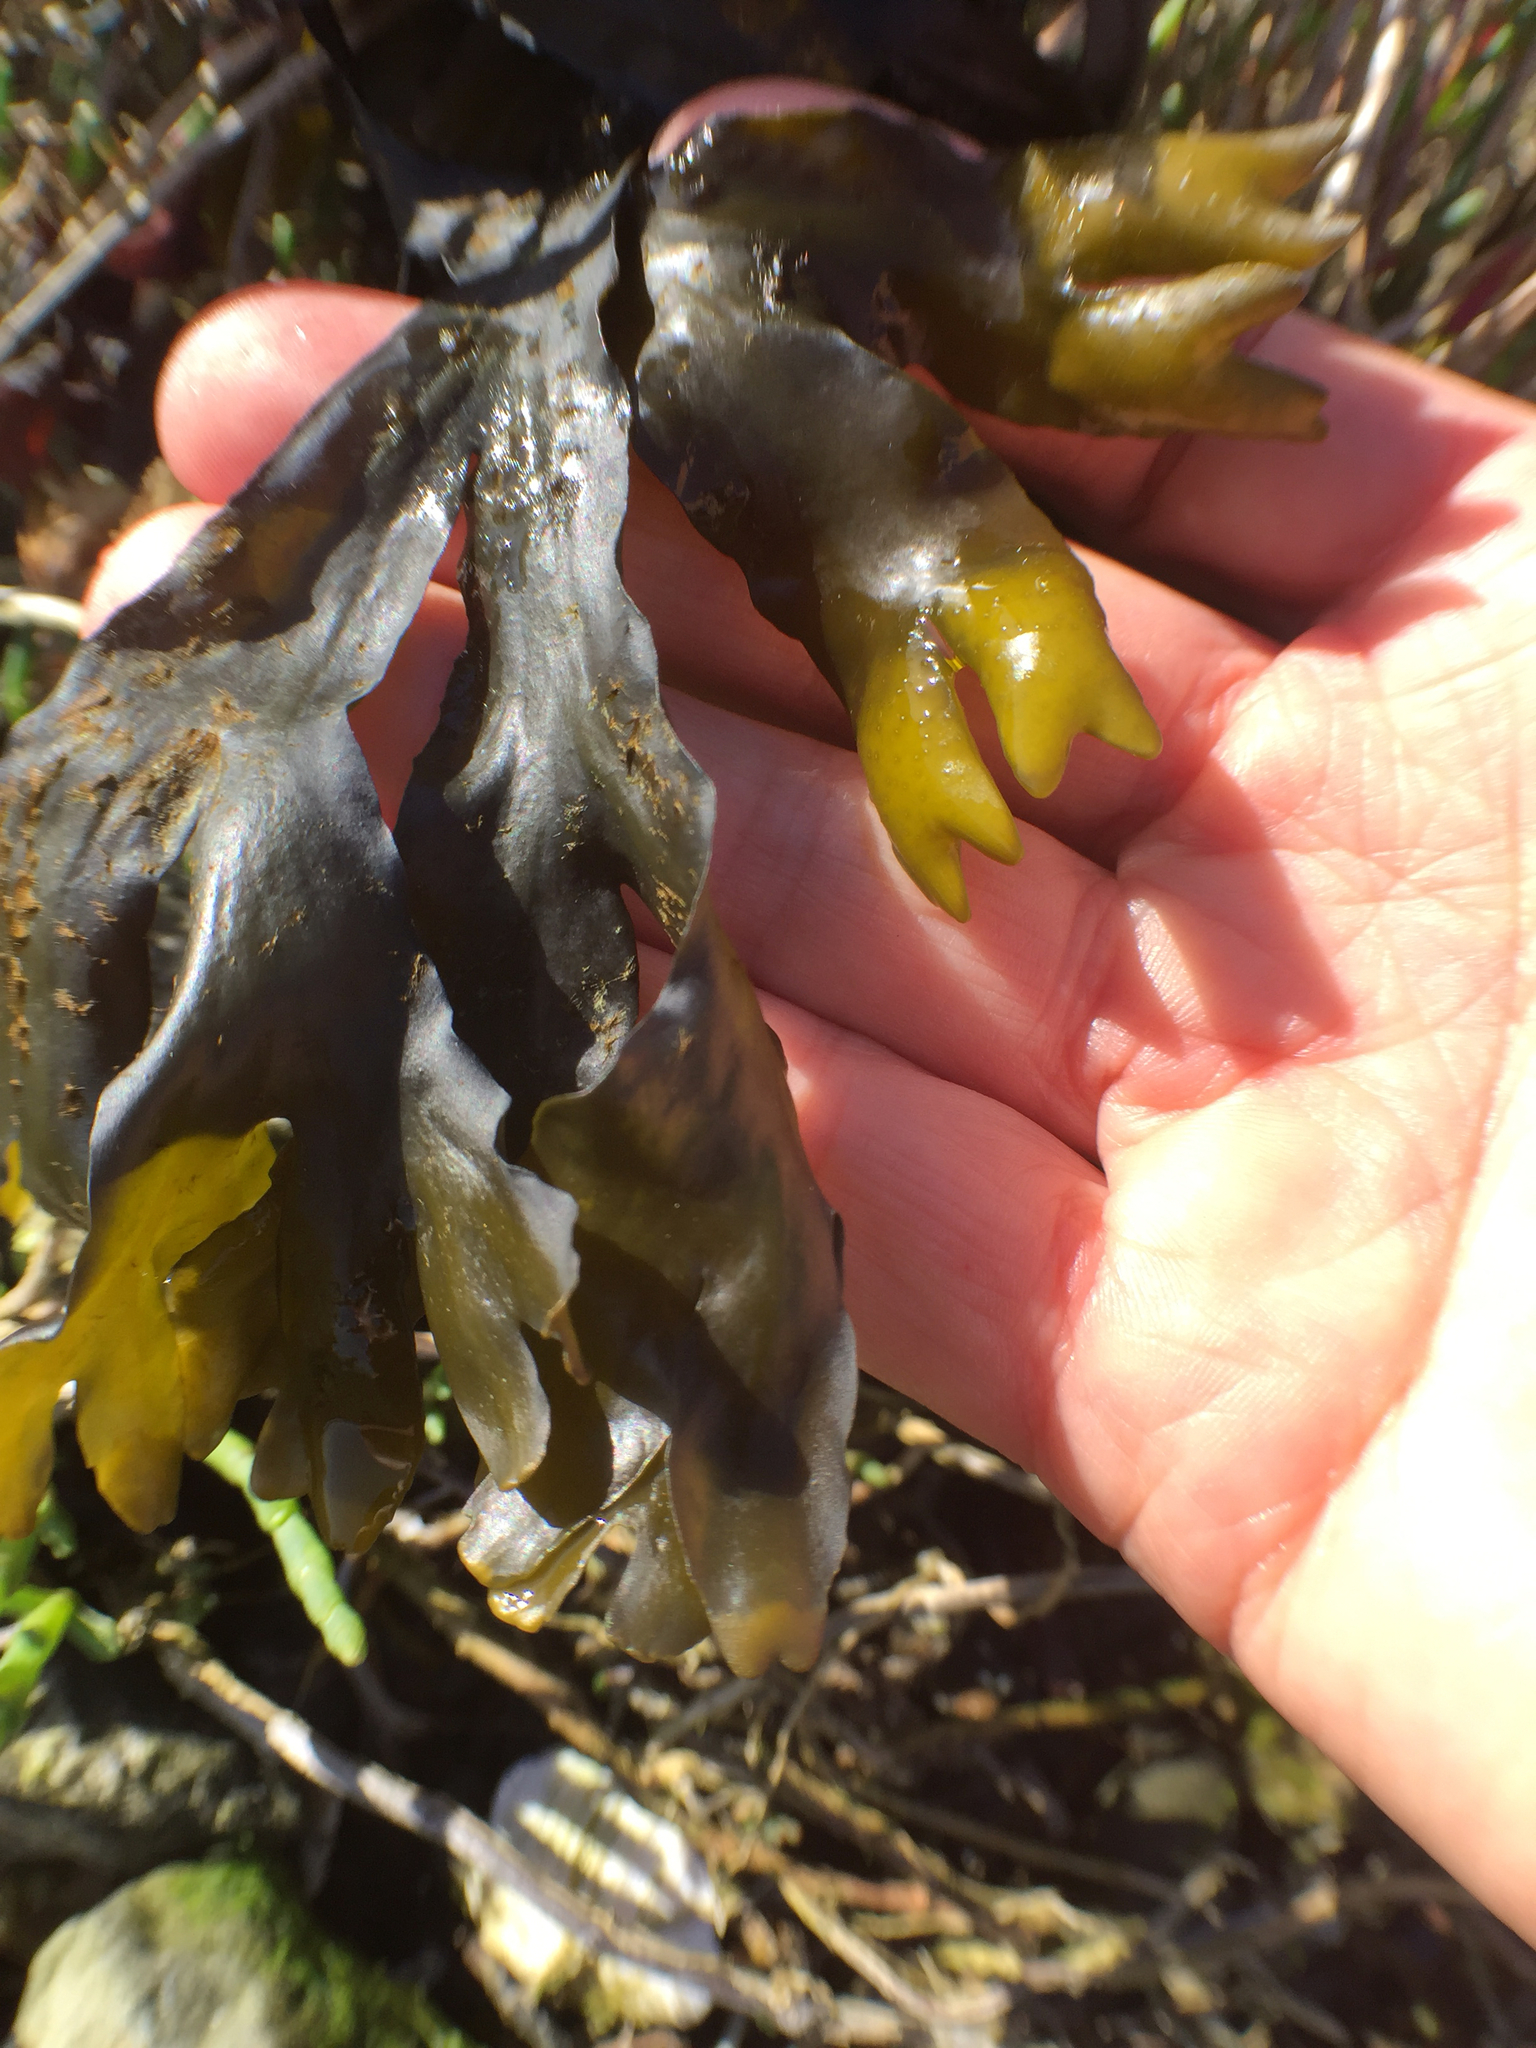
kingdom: Chromista
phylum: Ochrophyta
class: Phaeophyceae
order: Fucales
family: Fucaceae
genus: Fucus
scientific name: Fucus distichus
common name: Rockweed
